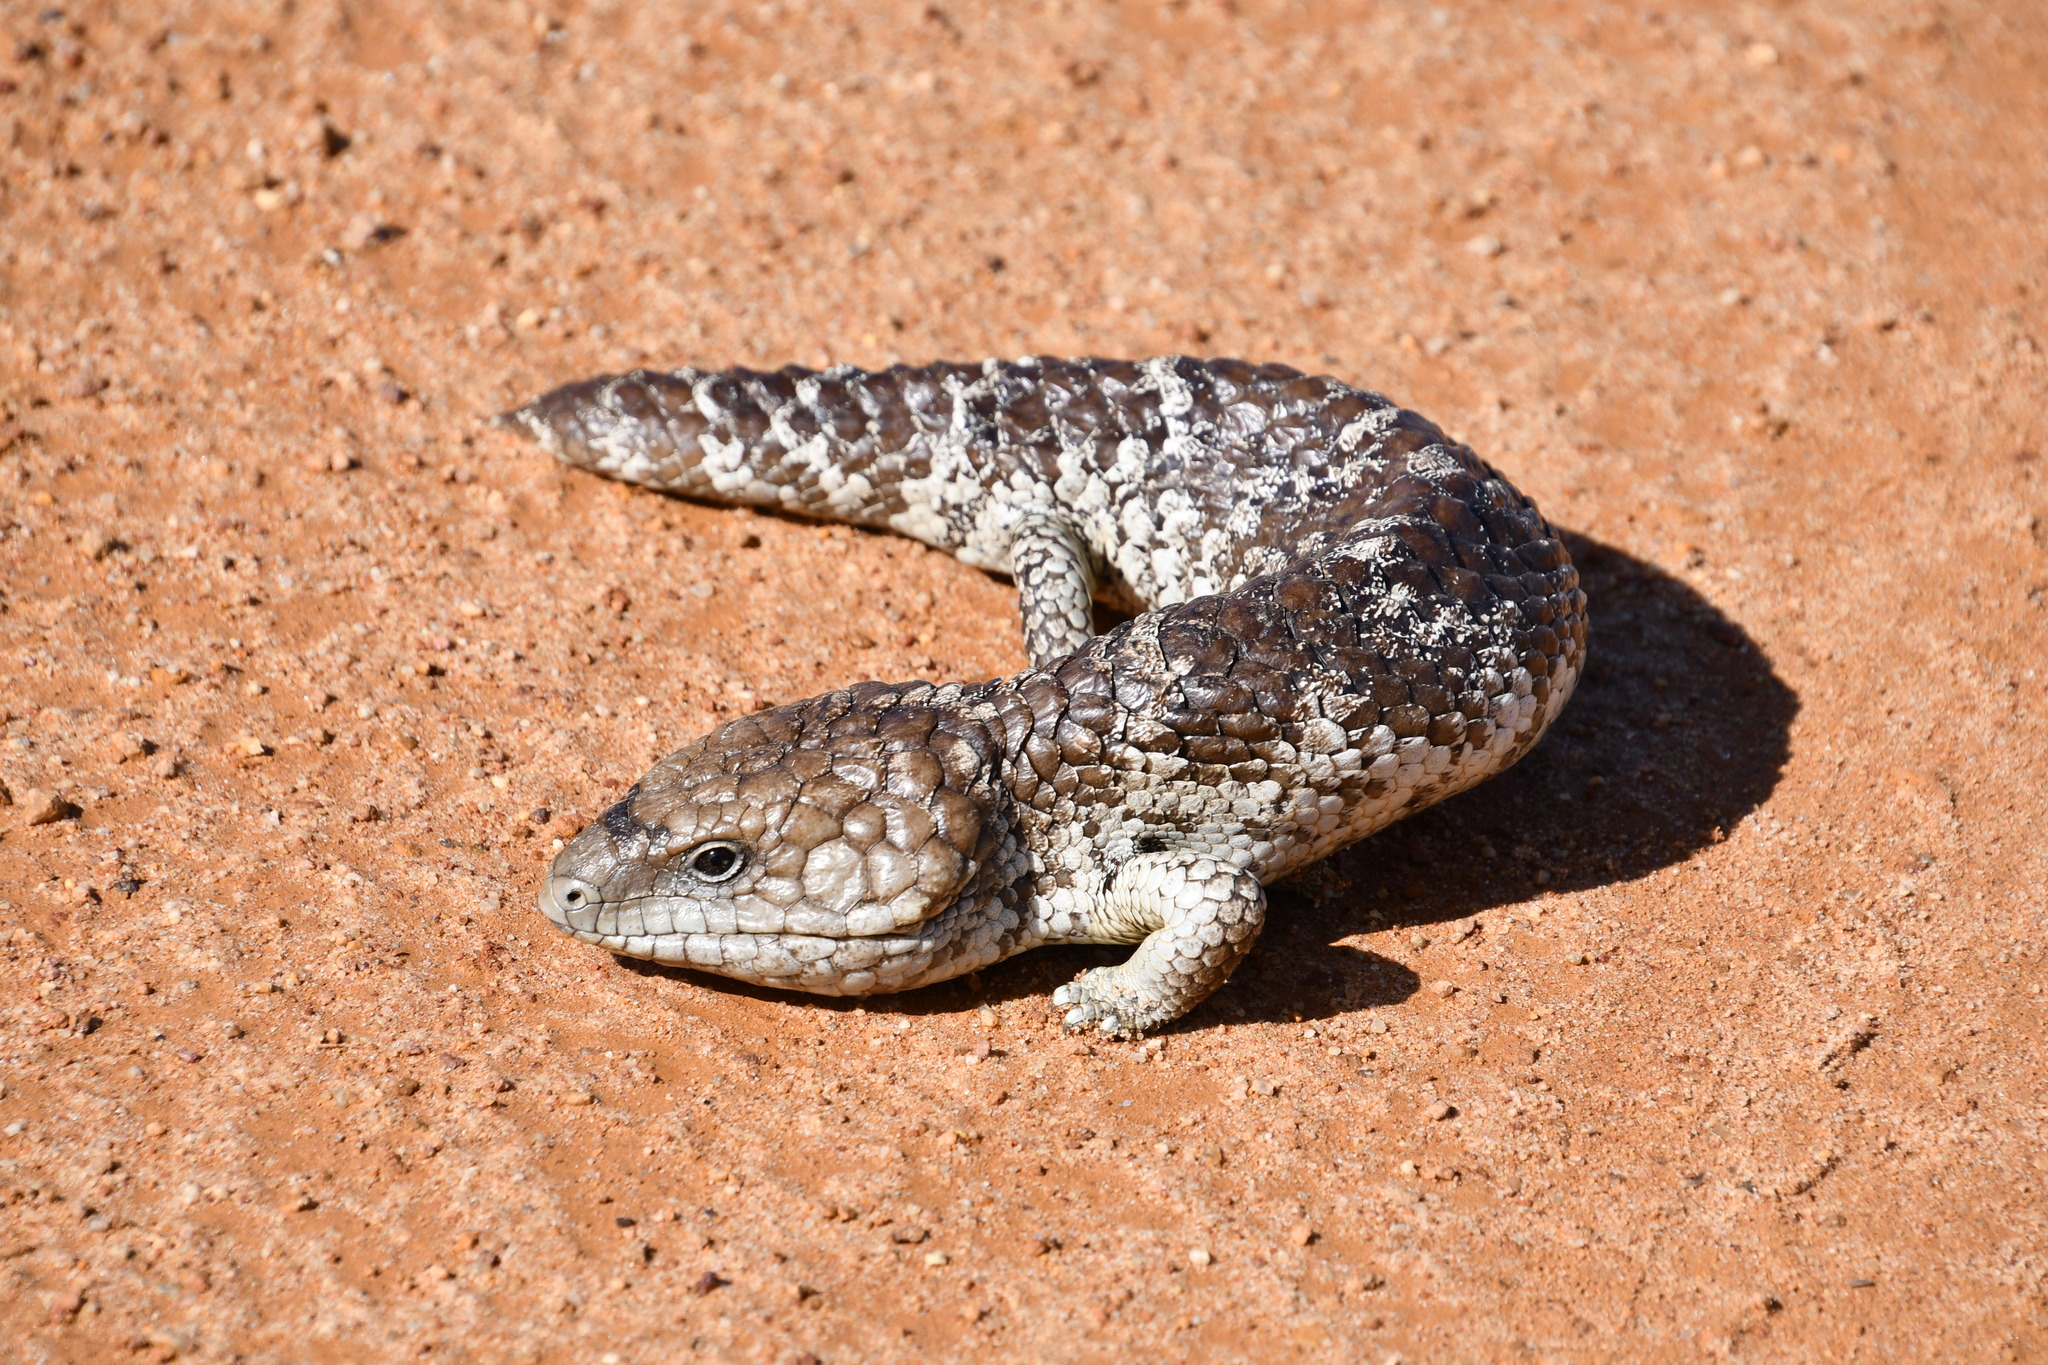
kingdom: Animalia
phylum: Chordata
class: Squamata
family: Scincidae
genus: Tiliqua
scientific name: Tiliqua rugosa
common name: Pinecone lizard
